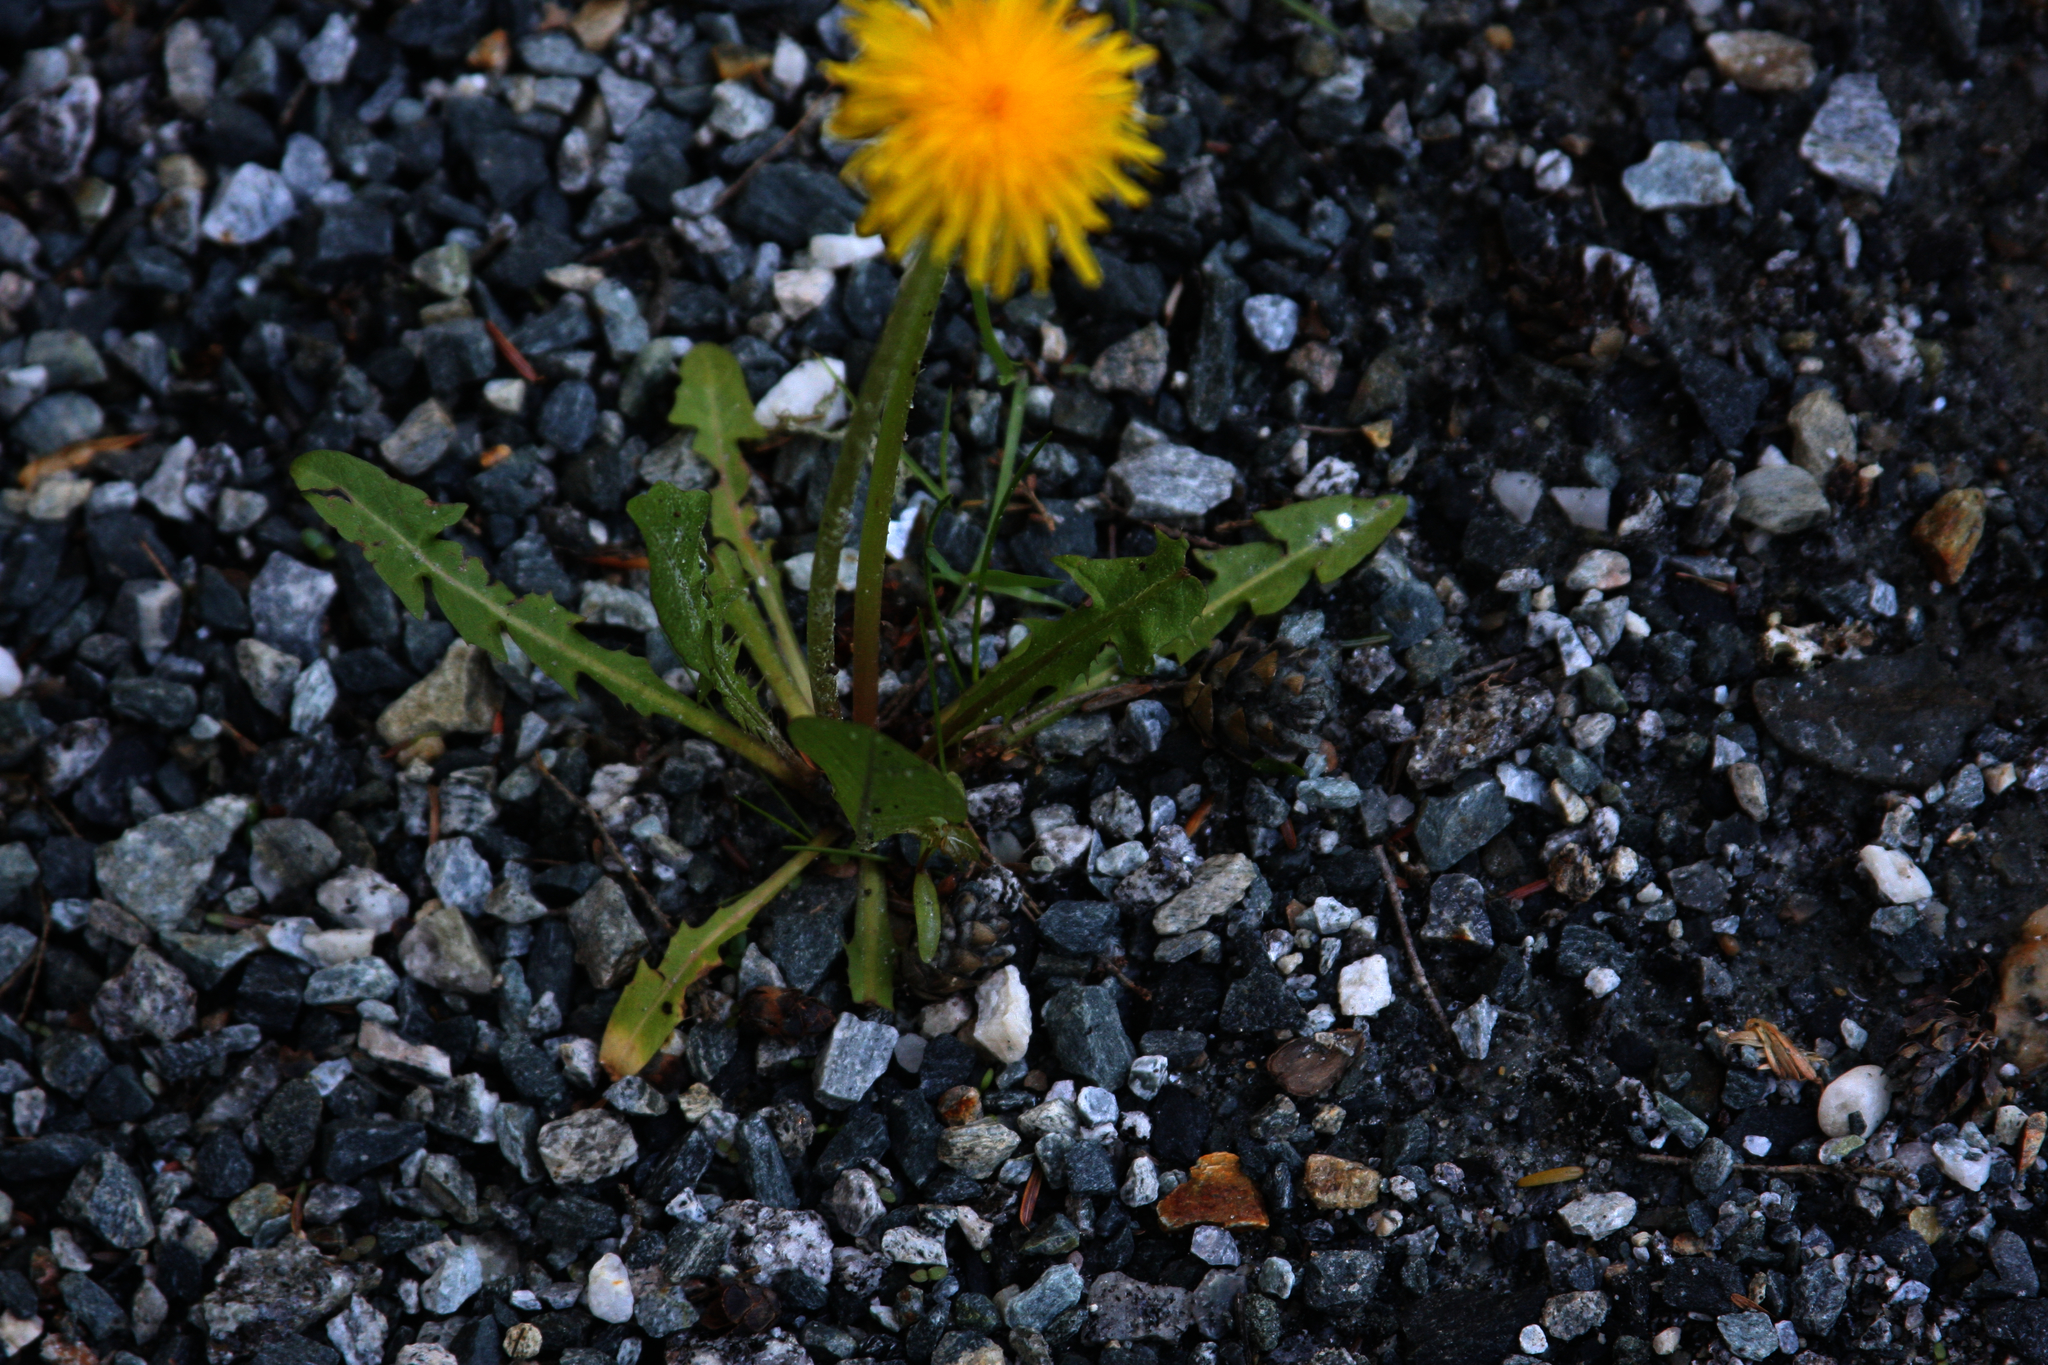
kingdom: Plantae
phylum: Tracheophyta
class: Magnoliopsida
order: Asterales
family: Asteraceae
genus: Taraxacum
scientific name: Taraxacum officinale
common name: Common dandelion
